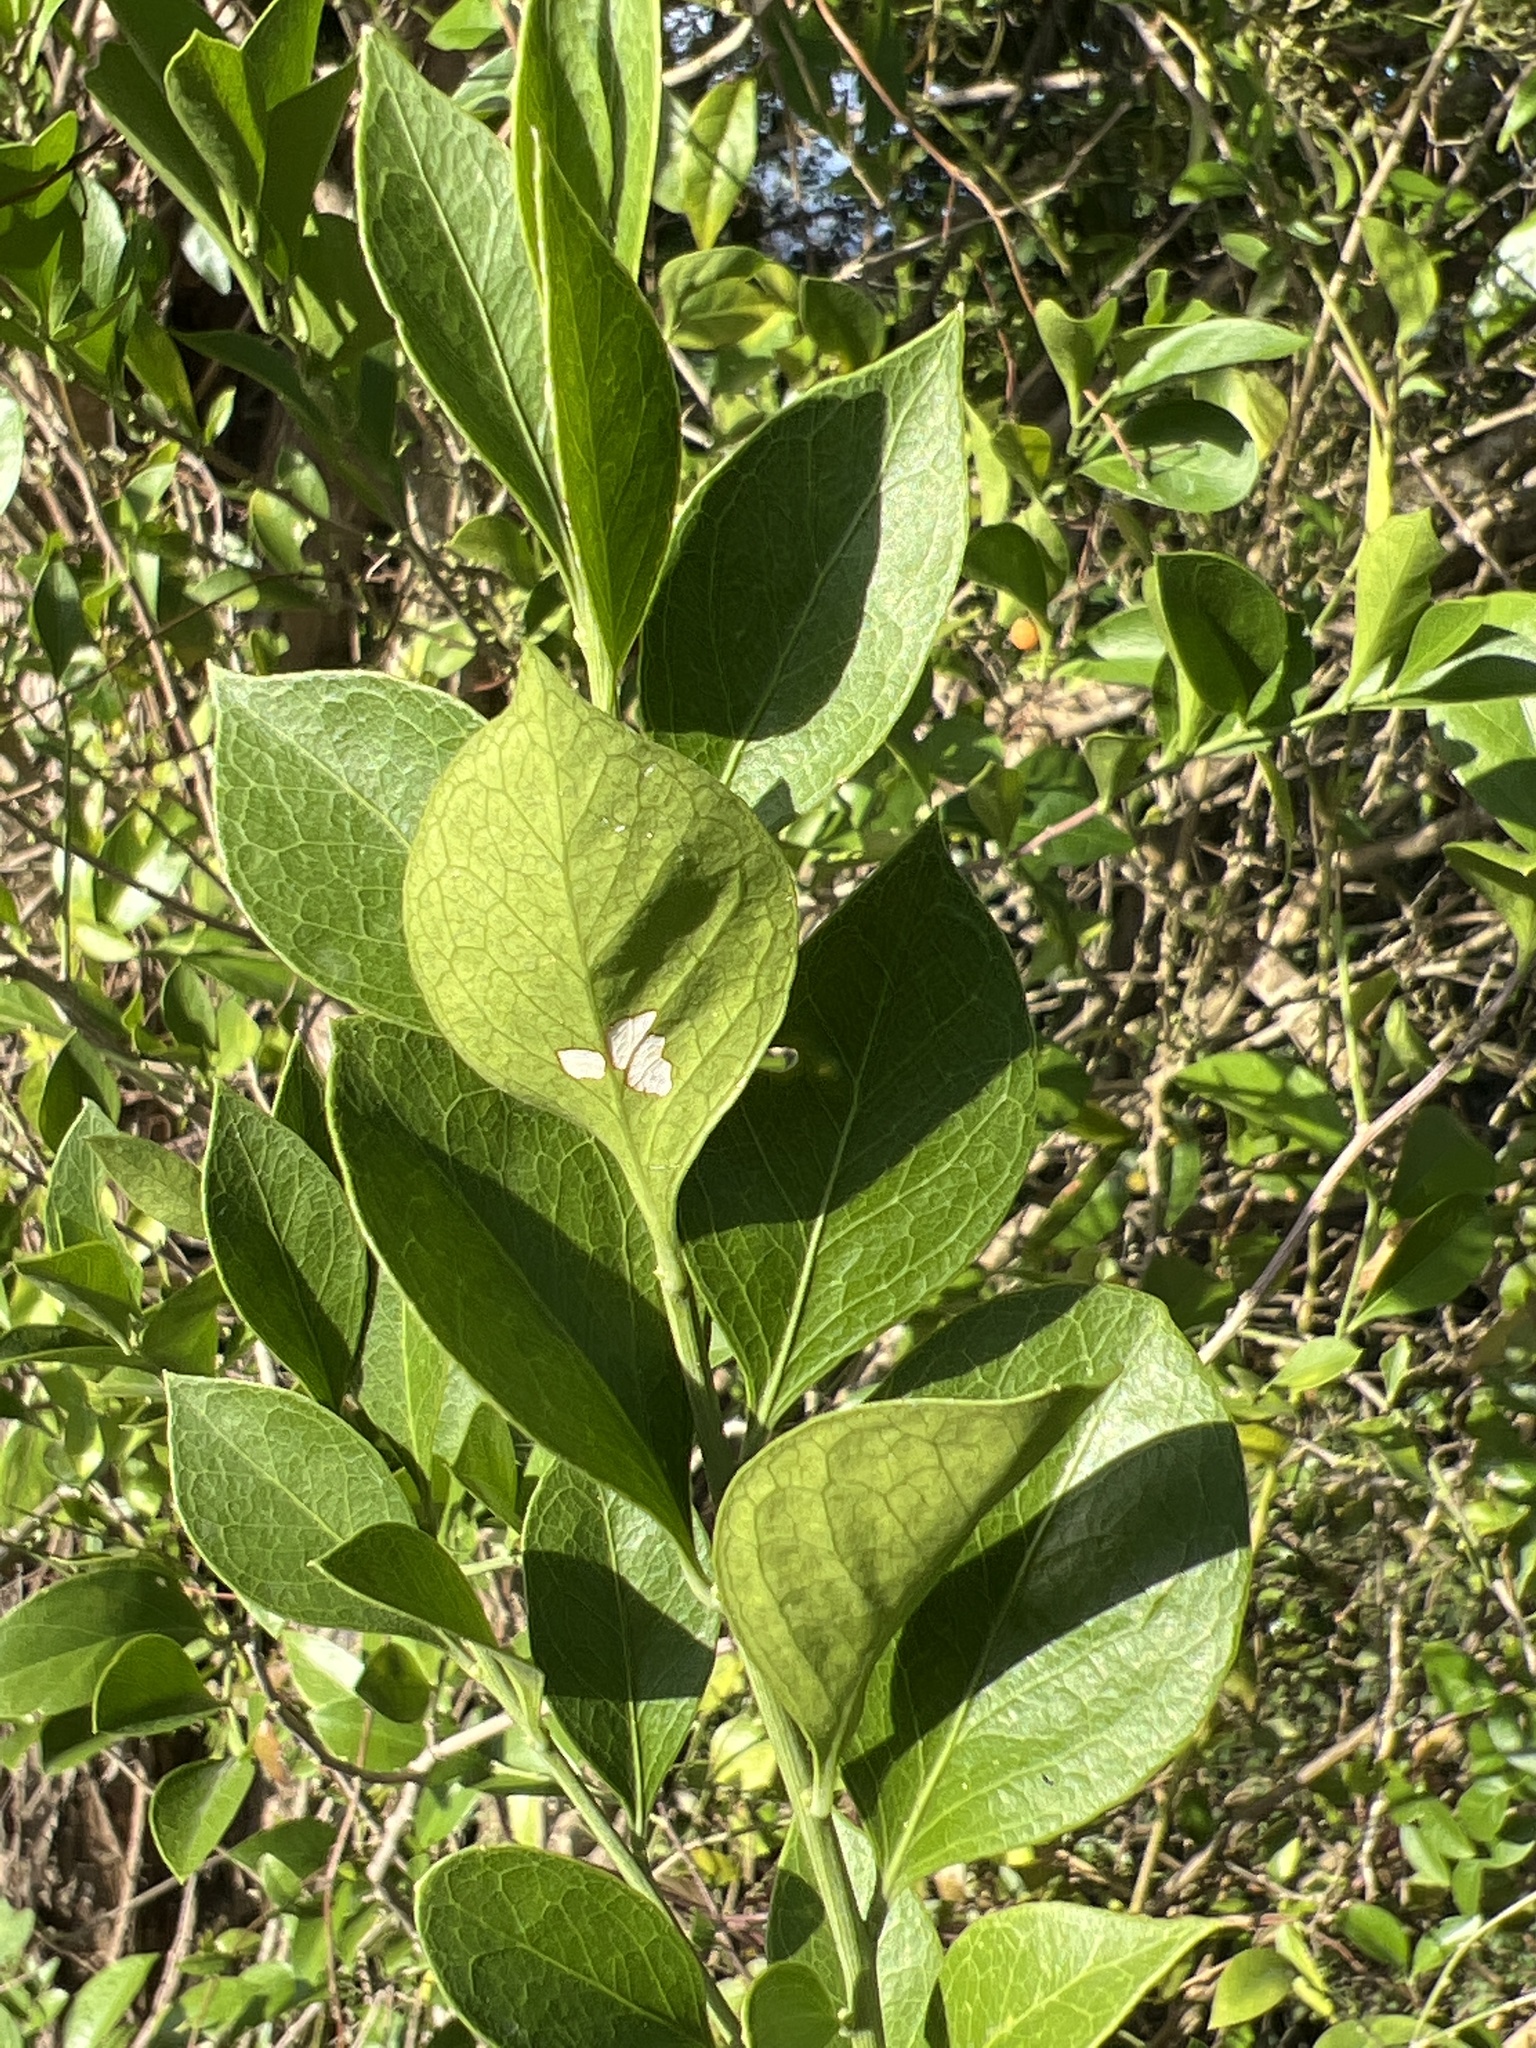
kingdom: Plantae
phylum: Tracheophyta
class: Magnoliopsida
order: Celastrales
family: Celastraceae
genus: Schaefferia
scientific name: Schaefferia frutescens
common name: Boxwood
